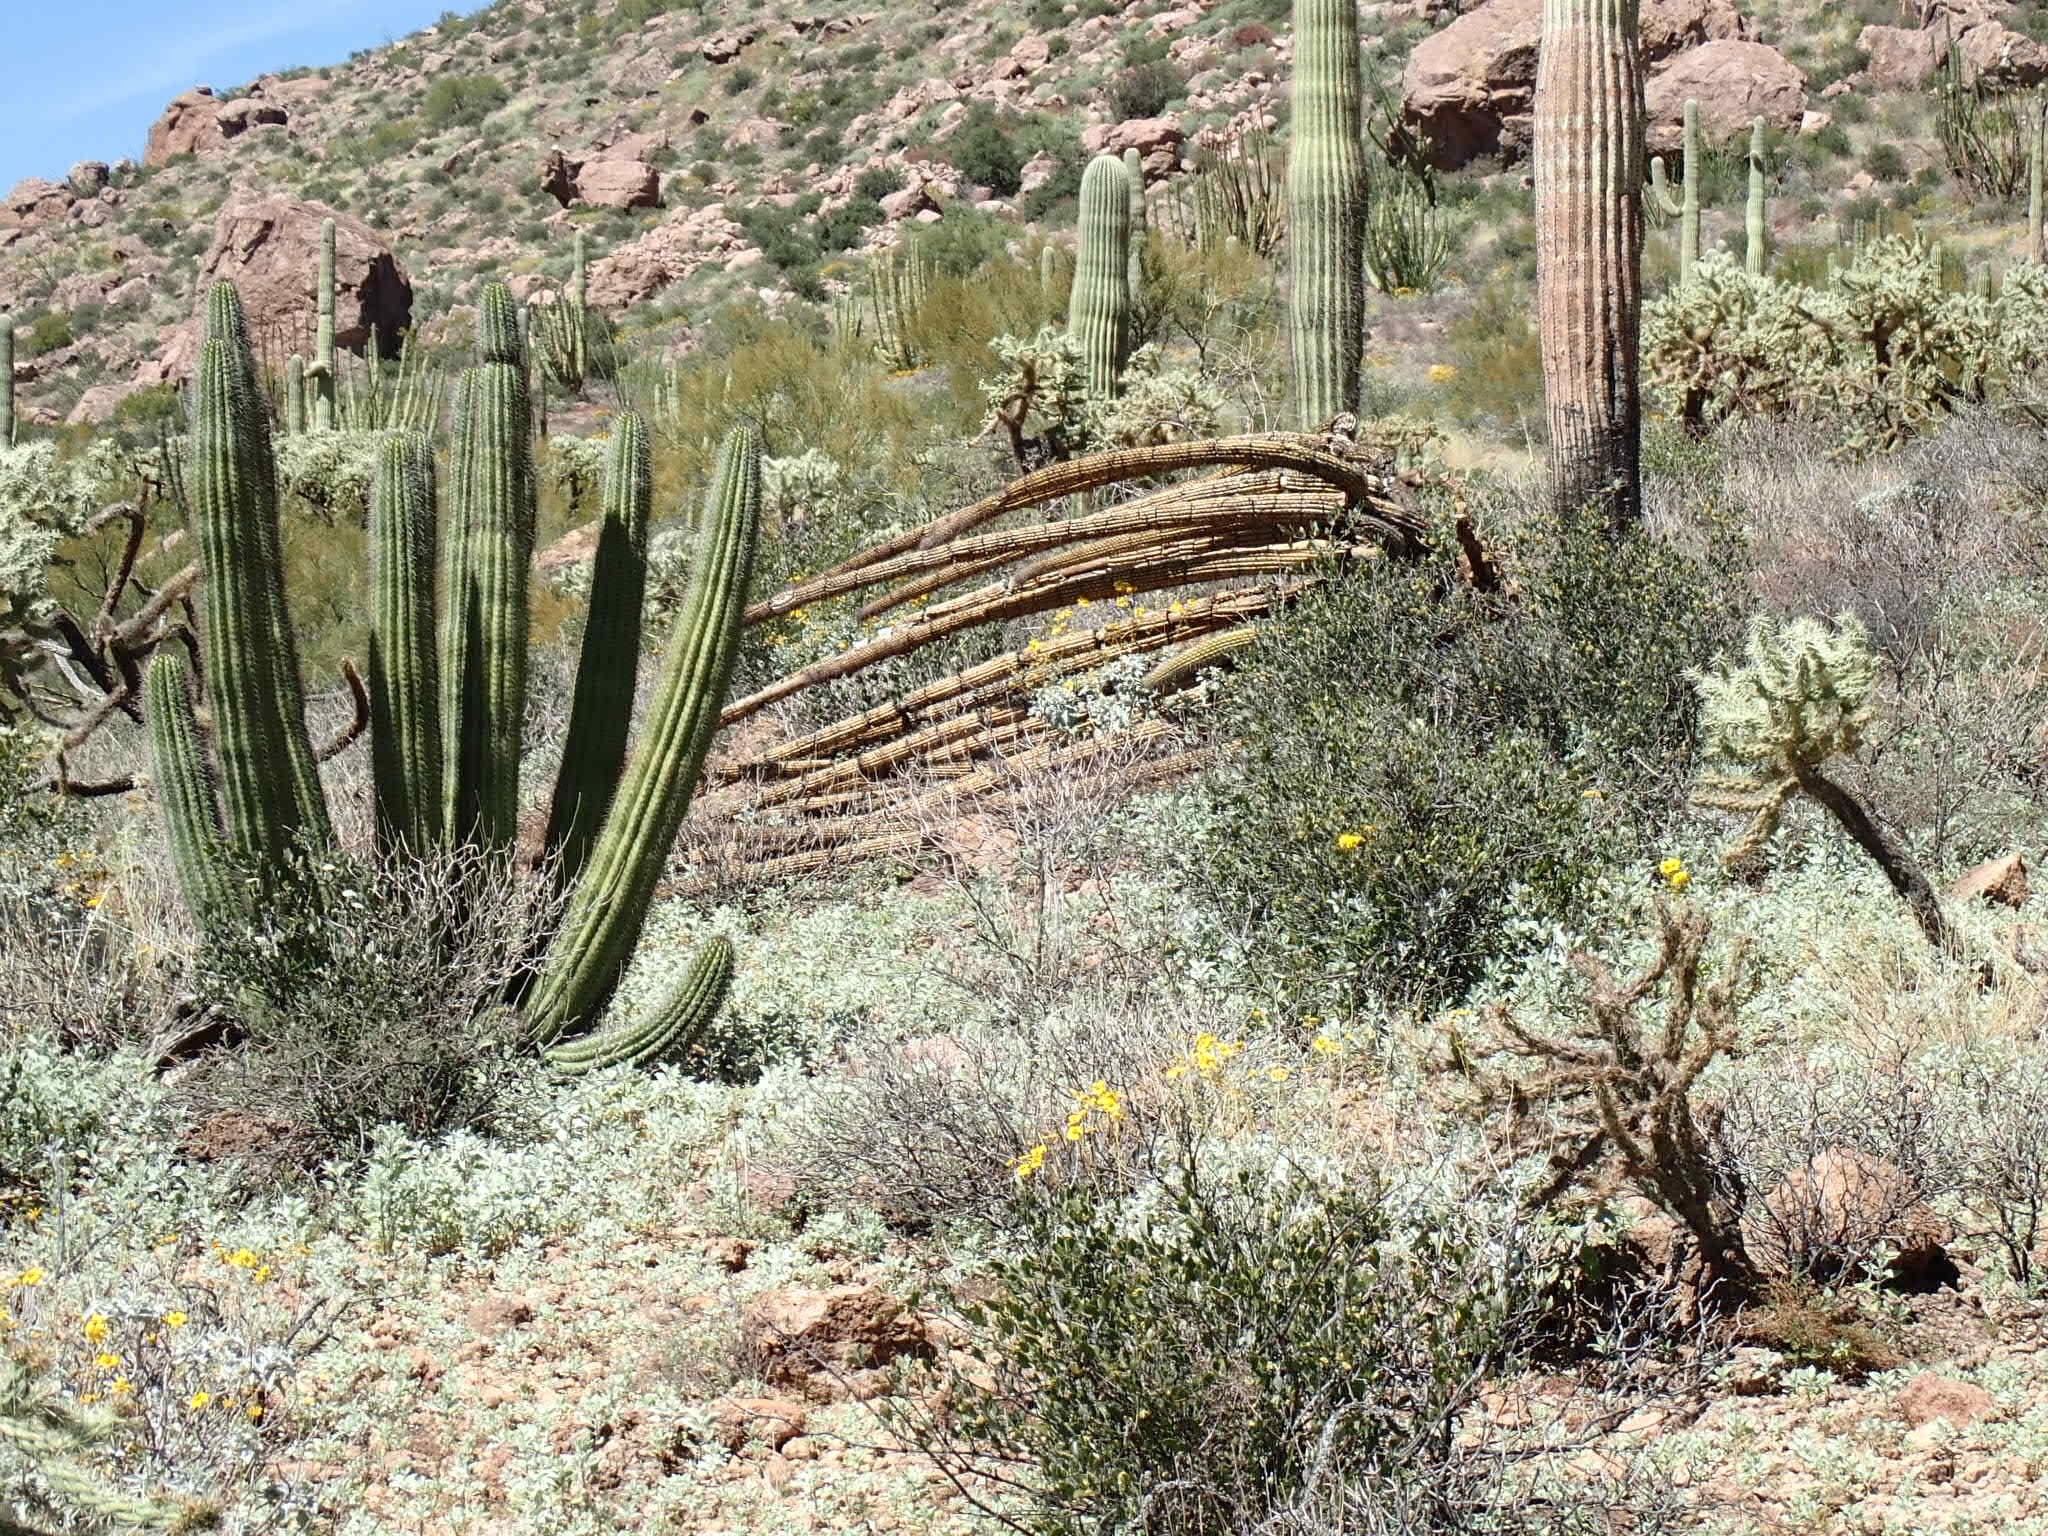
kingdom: Plantae
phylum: Tracheophyta
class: Magnoliopsida
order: Caryophyllales
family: Cactaceae
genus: Stenocereus
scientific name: Stenocereus thurberi
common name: Organ pipe cactus
